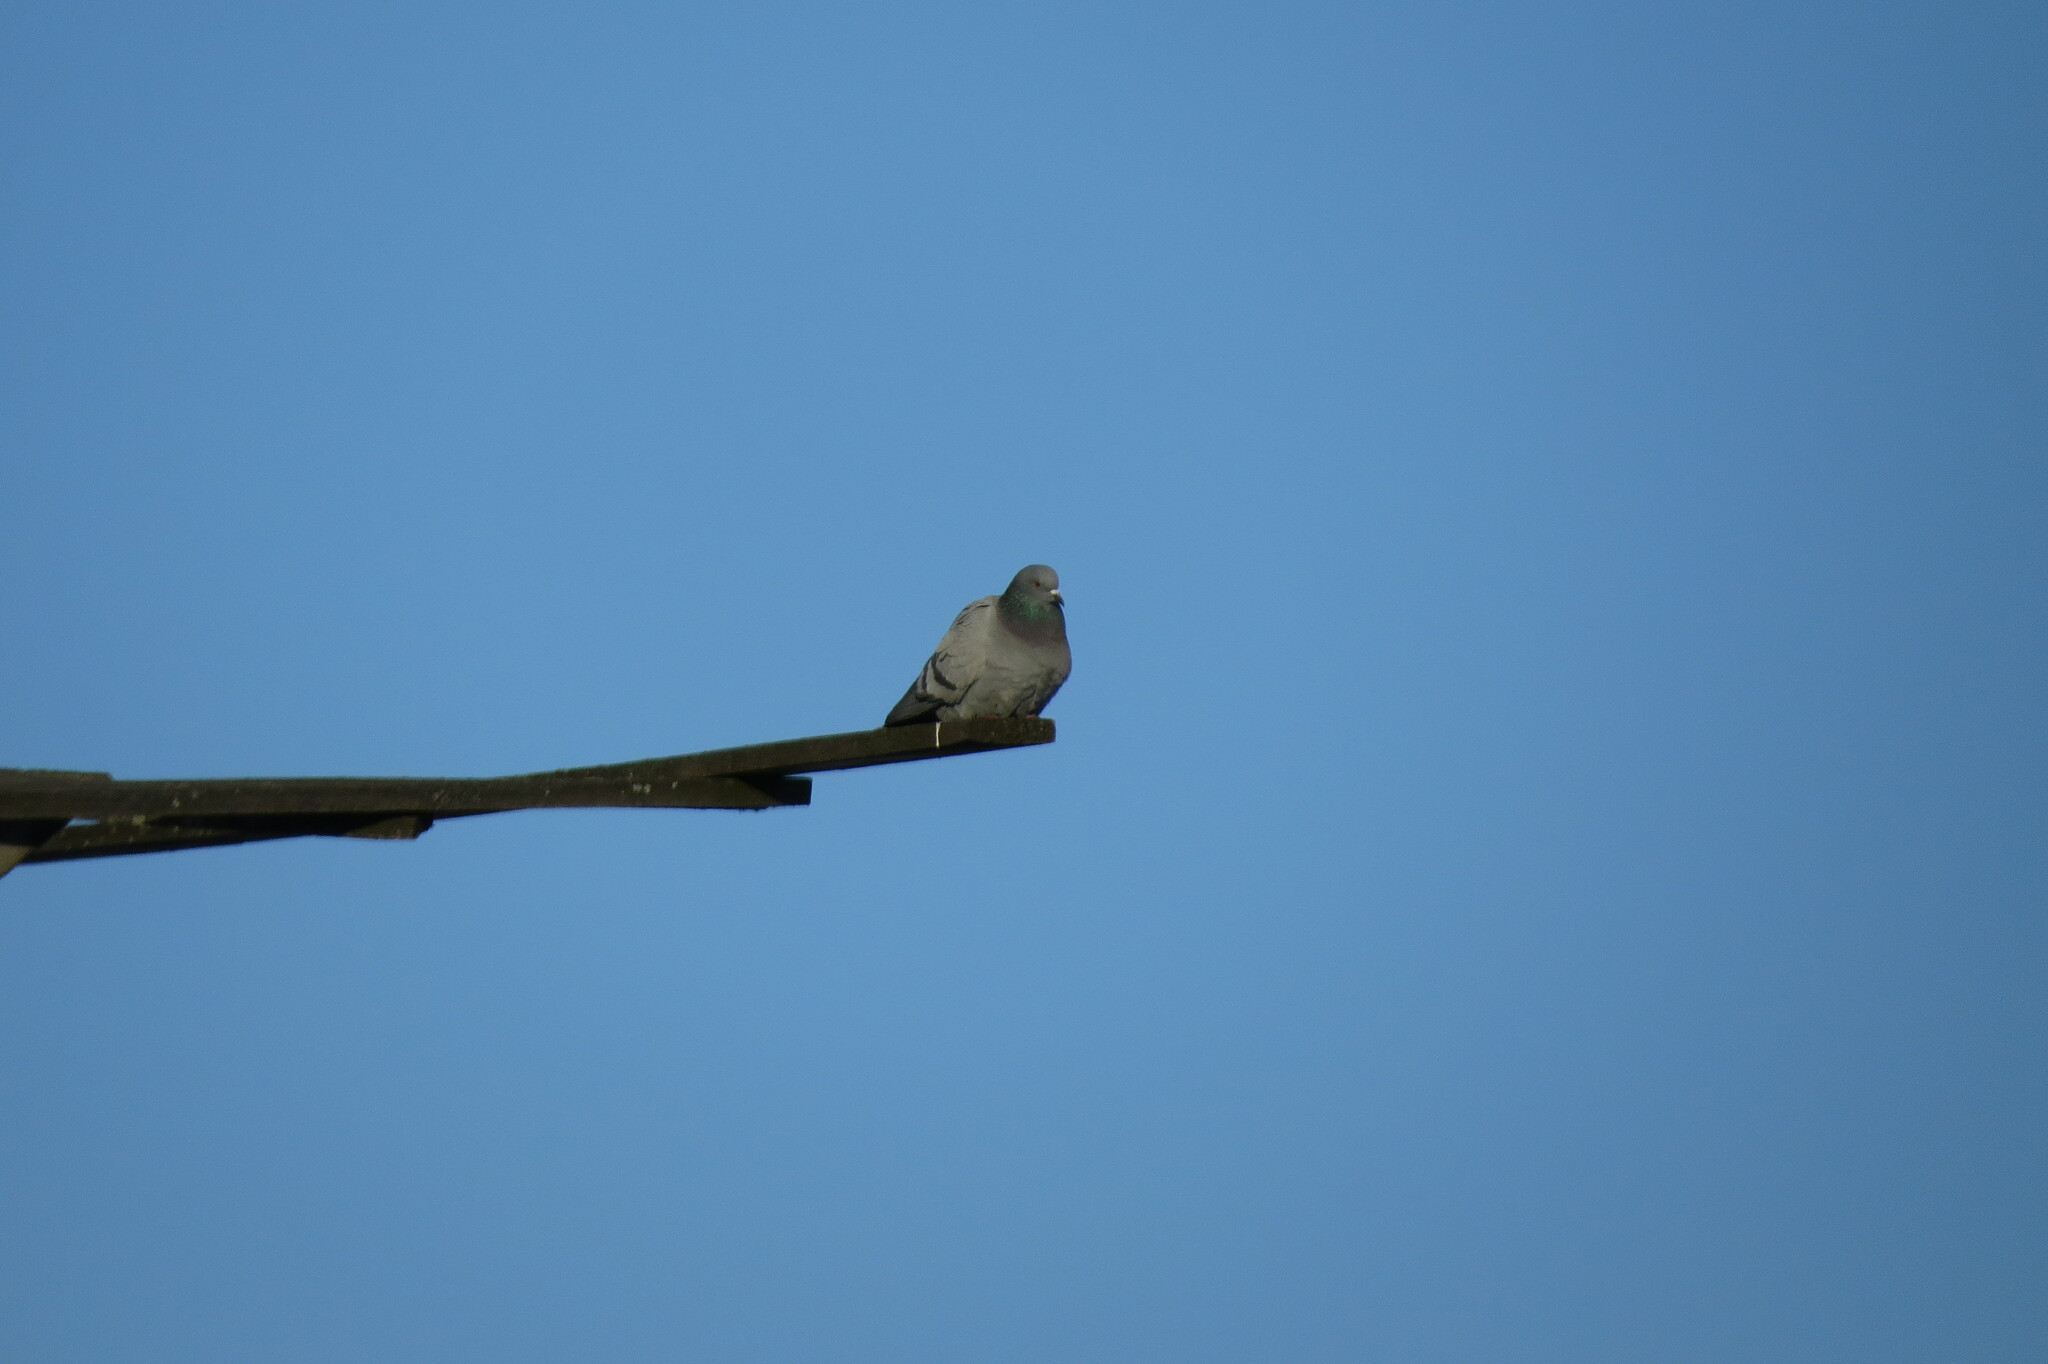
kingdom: Animalia
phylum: Chordata
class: Aves
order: Columbiformes
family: Columbidae
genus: Columba
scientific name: Columba livia
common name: Rock pigeon
